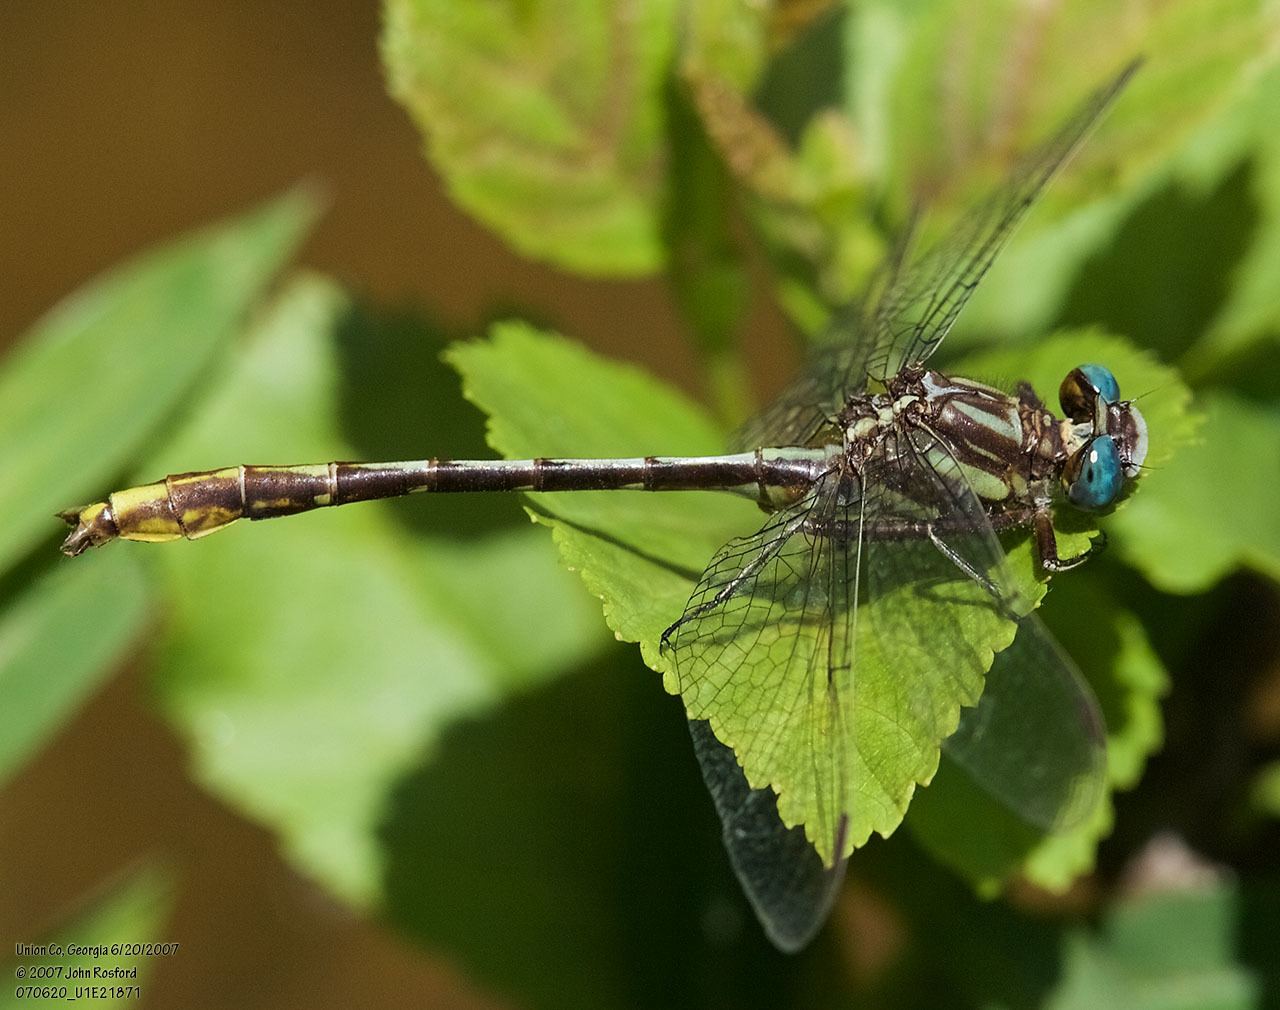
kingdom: Animalia
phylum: Arthropoda
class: Insecta
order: Odonata
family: Gomphidae
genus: Phanogomphus
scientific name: Phanogomphus exilis
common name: Lancet clubtail
